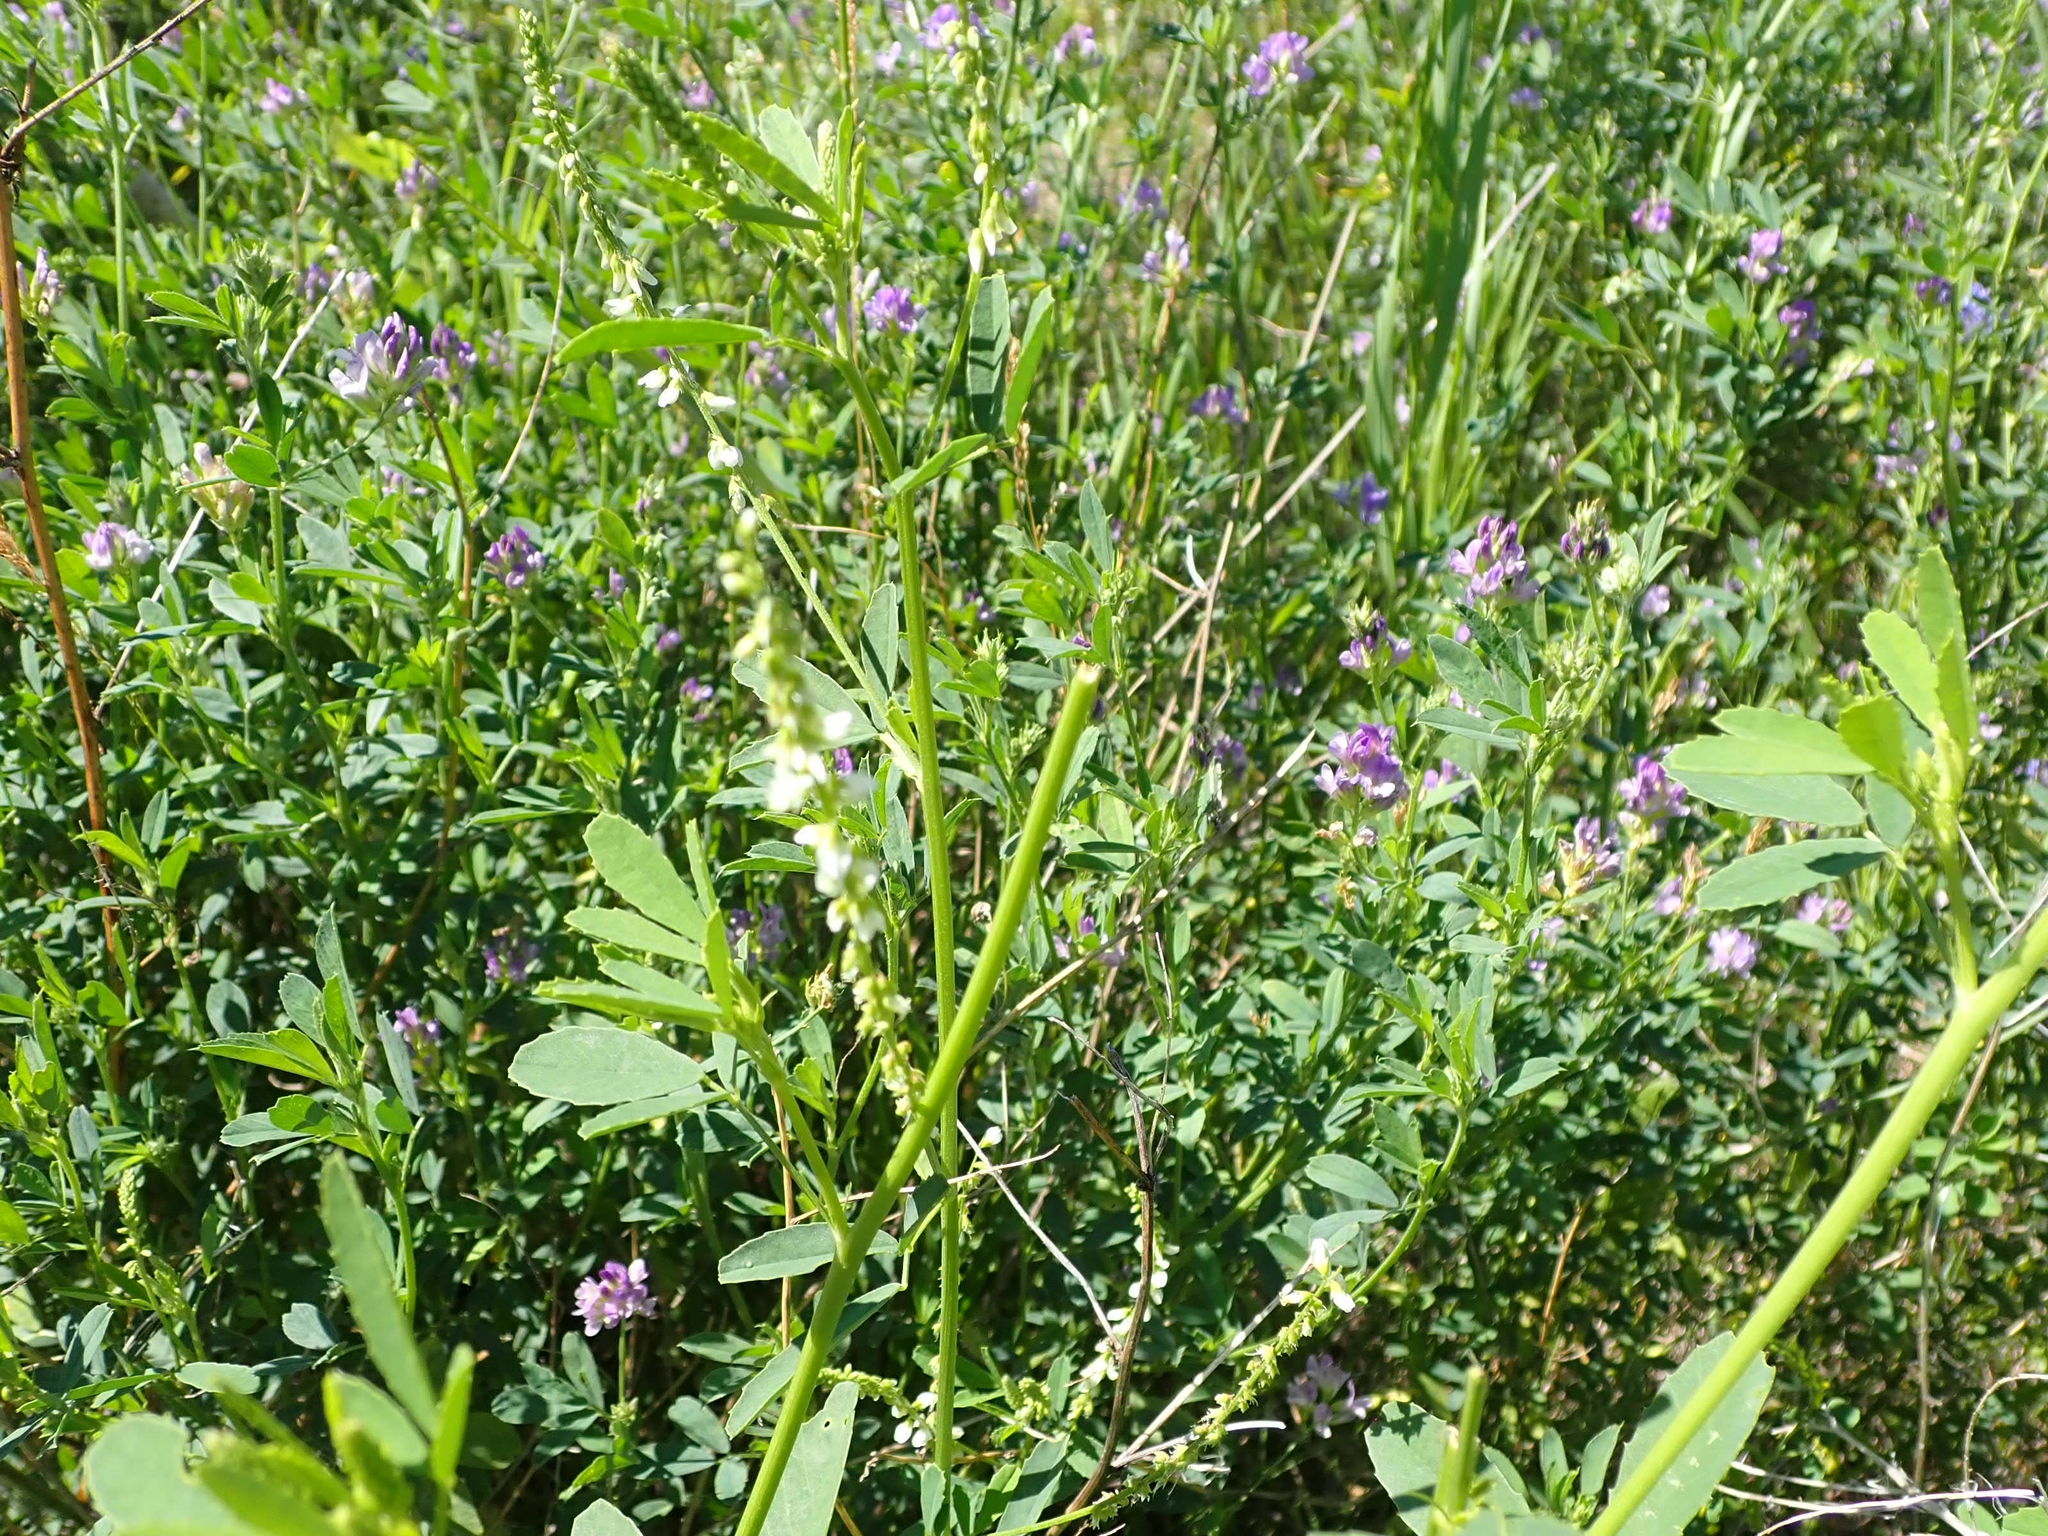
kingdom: Plantae
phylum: Tracheophyta
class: Magnoliopsida
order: Fabales
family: Fabaceae
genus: Melilotus
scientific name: Melilotus albus
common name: White melilot
